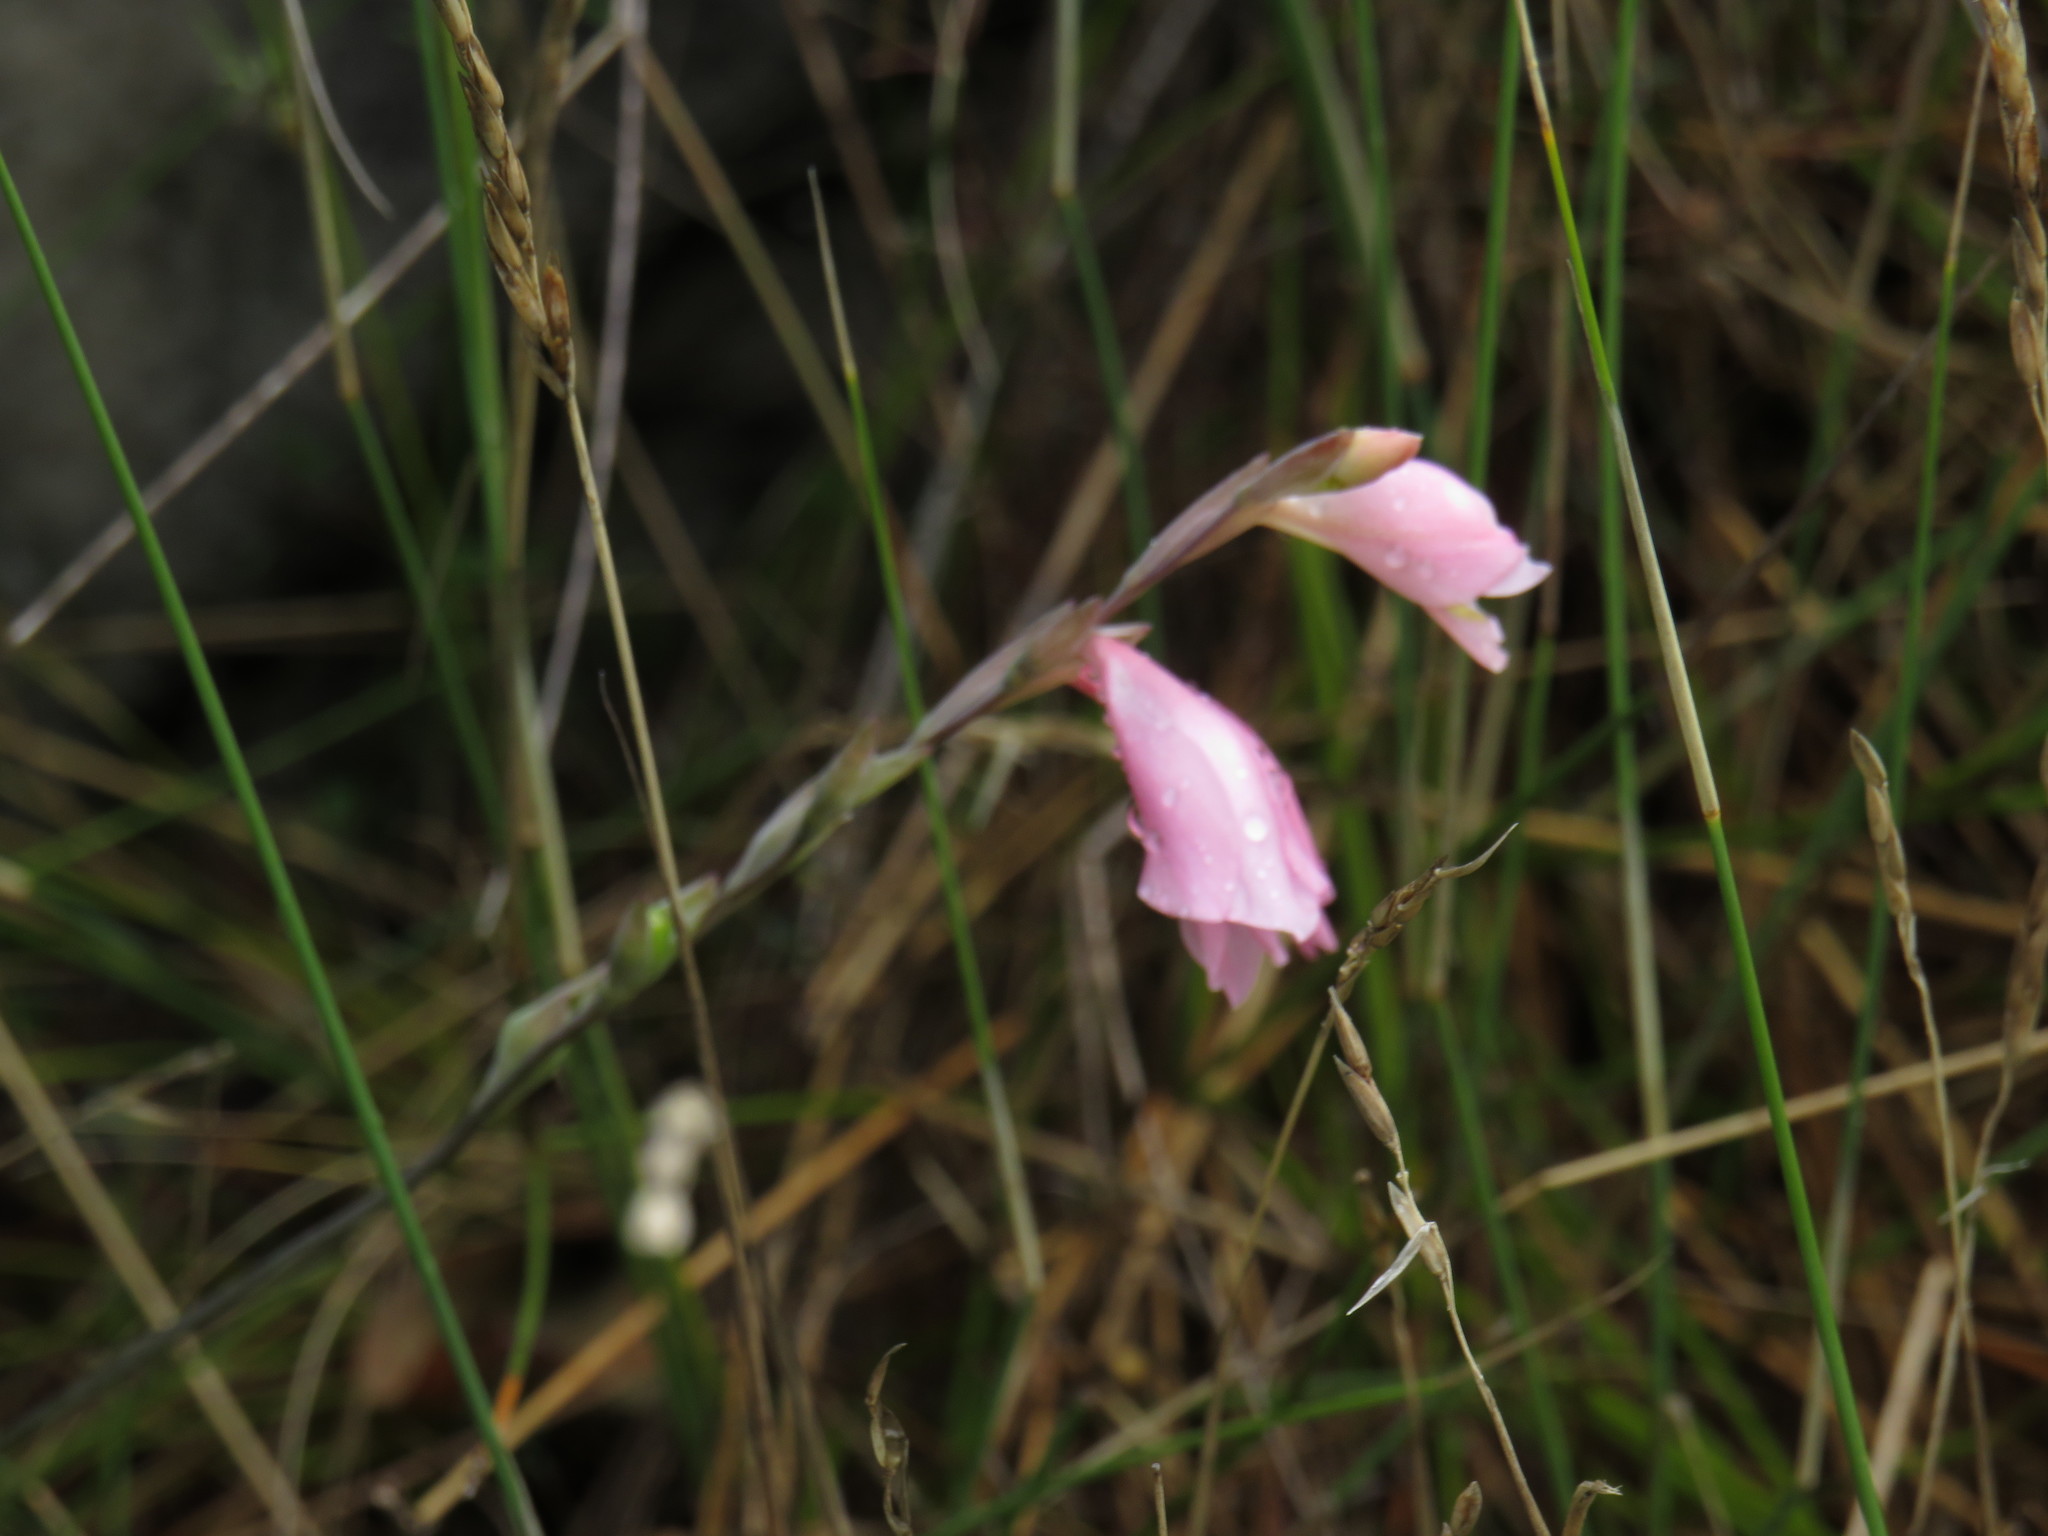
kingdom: Plantae
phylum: Tracheophyta
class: Liliopsida
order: Asparagales
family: Iridaceae
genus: Gladiolus
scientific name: Gladiolus brevifolius
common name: March pypie
